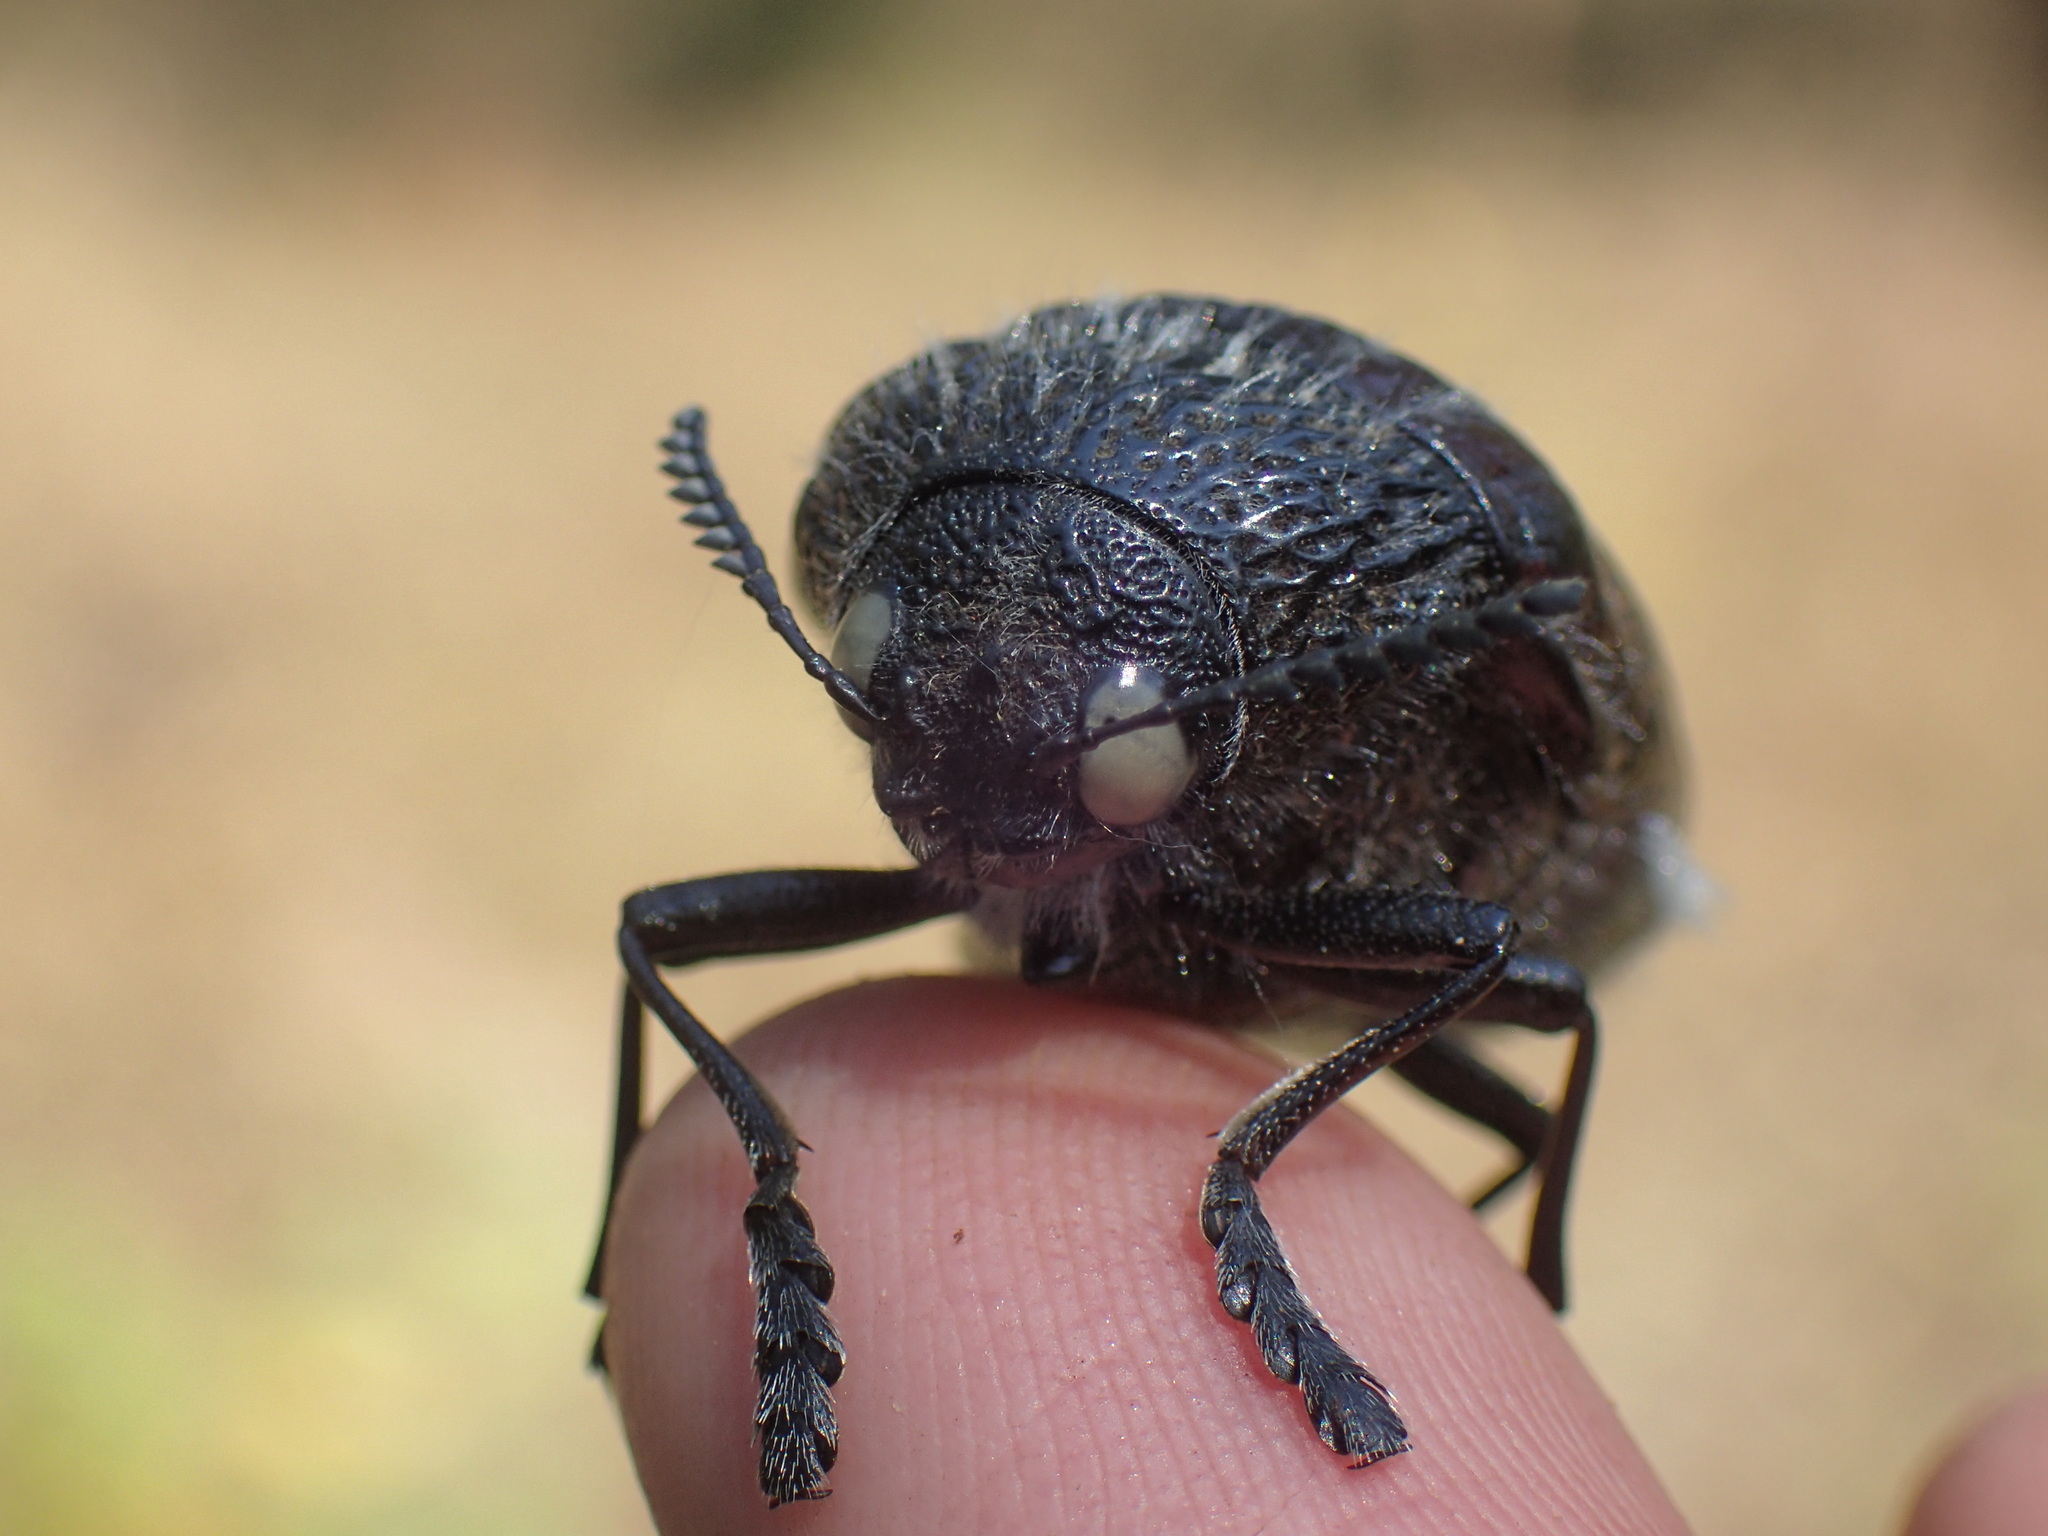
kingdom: Animalia
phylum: Arthropoda
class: Insecta
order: Coleoptera
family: Buprestidae
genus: Sternocera
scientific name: Sternocera orissa
